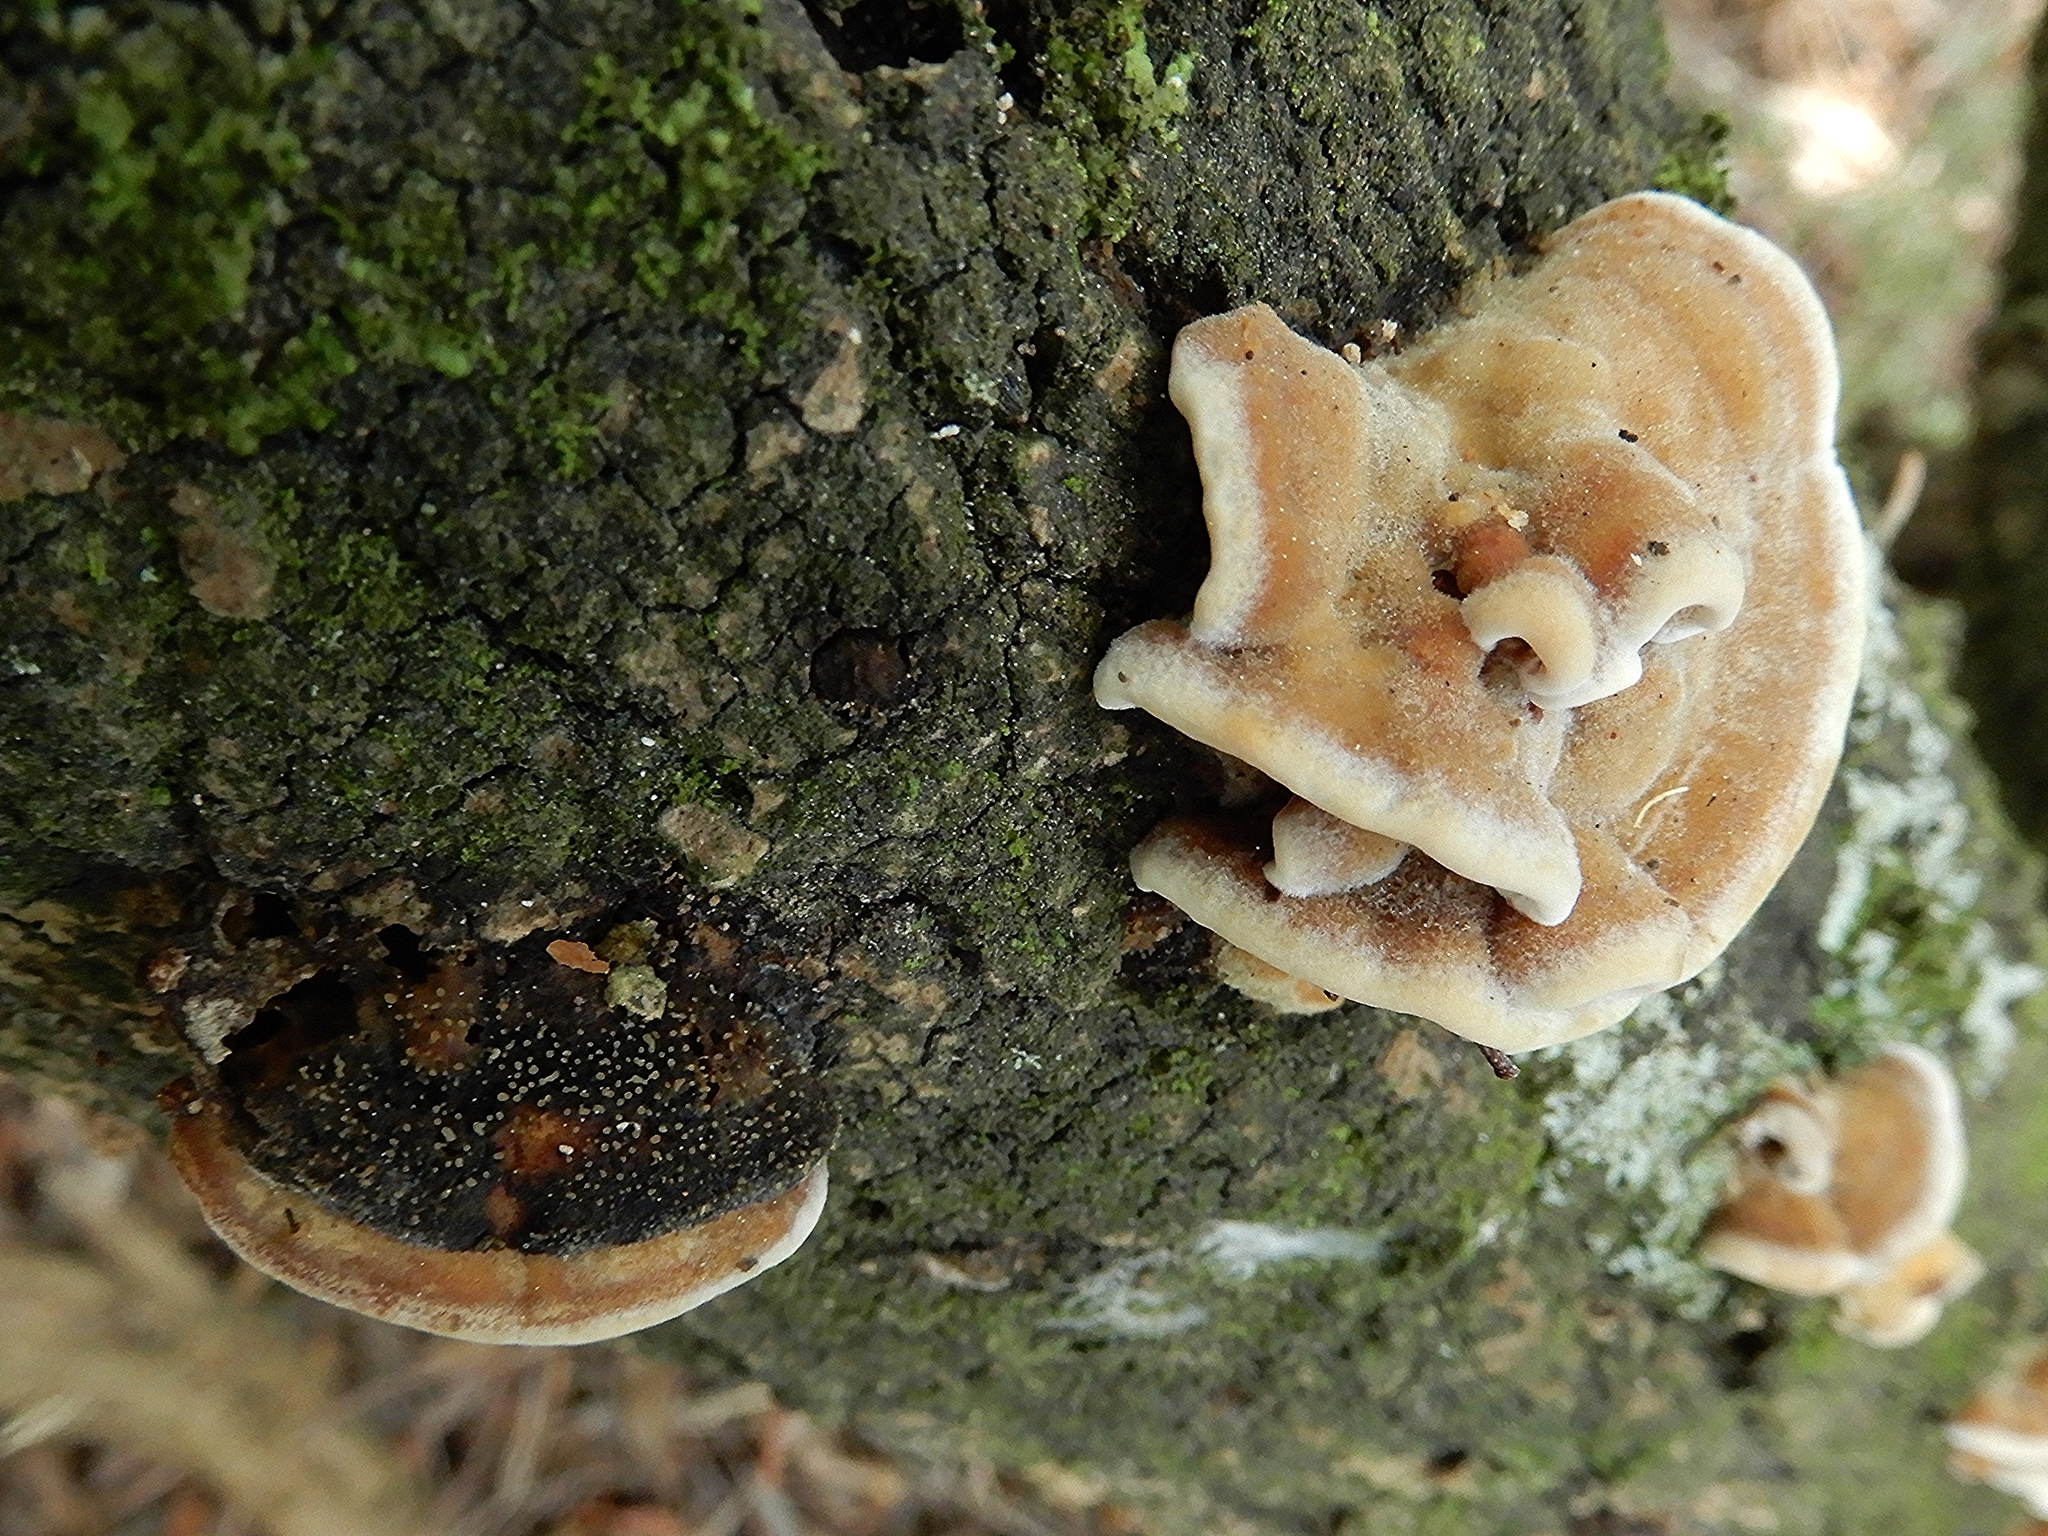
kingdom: Fungi
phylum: Basidiomycota
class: Agaricomycetes
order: Gloeophyllales
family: Gloeophyllaceae
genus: Gloeophyllum
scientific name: Gloeophyllum trabeum
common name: Timber mazegill
